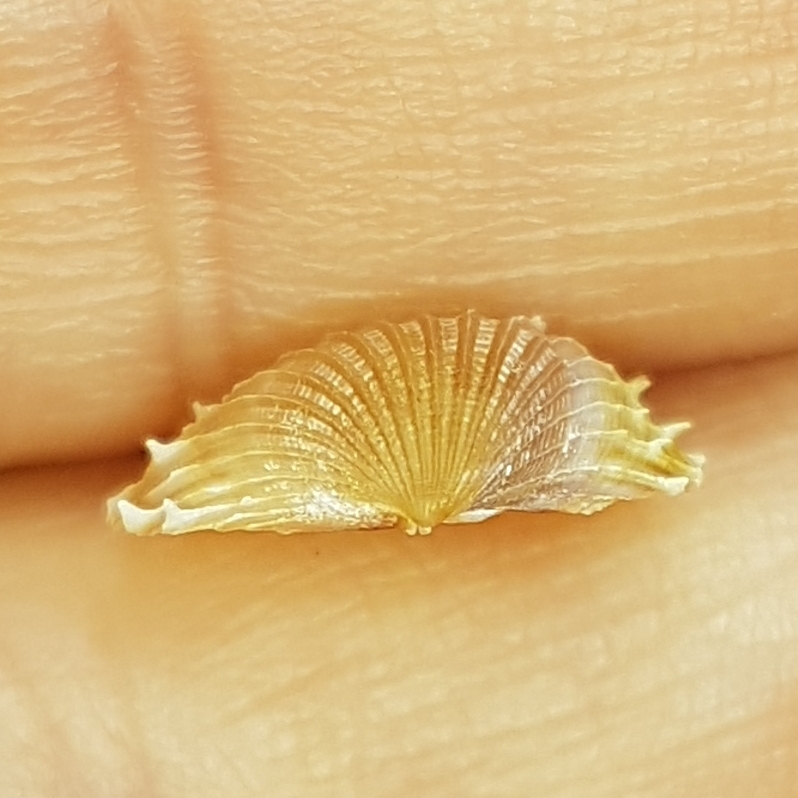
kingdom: Animalia
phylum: Mollusca
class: Bivalvia
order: Cardiida
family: Cardiidae
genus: Acanthocardia
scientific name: Acanthocardia aculeata
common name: Spiny cockle
